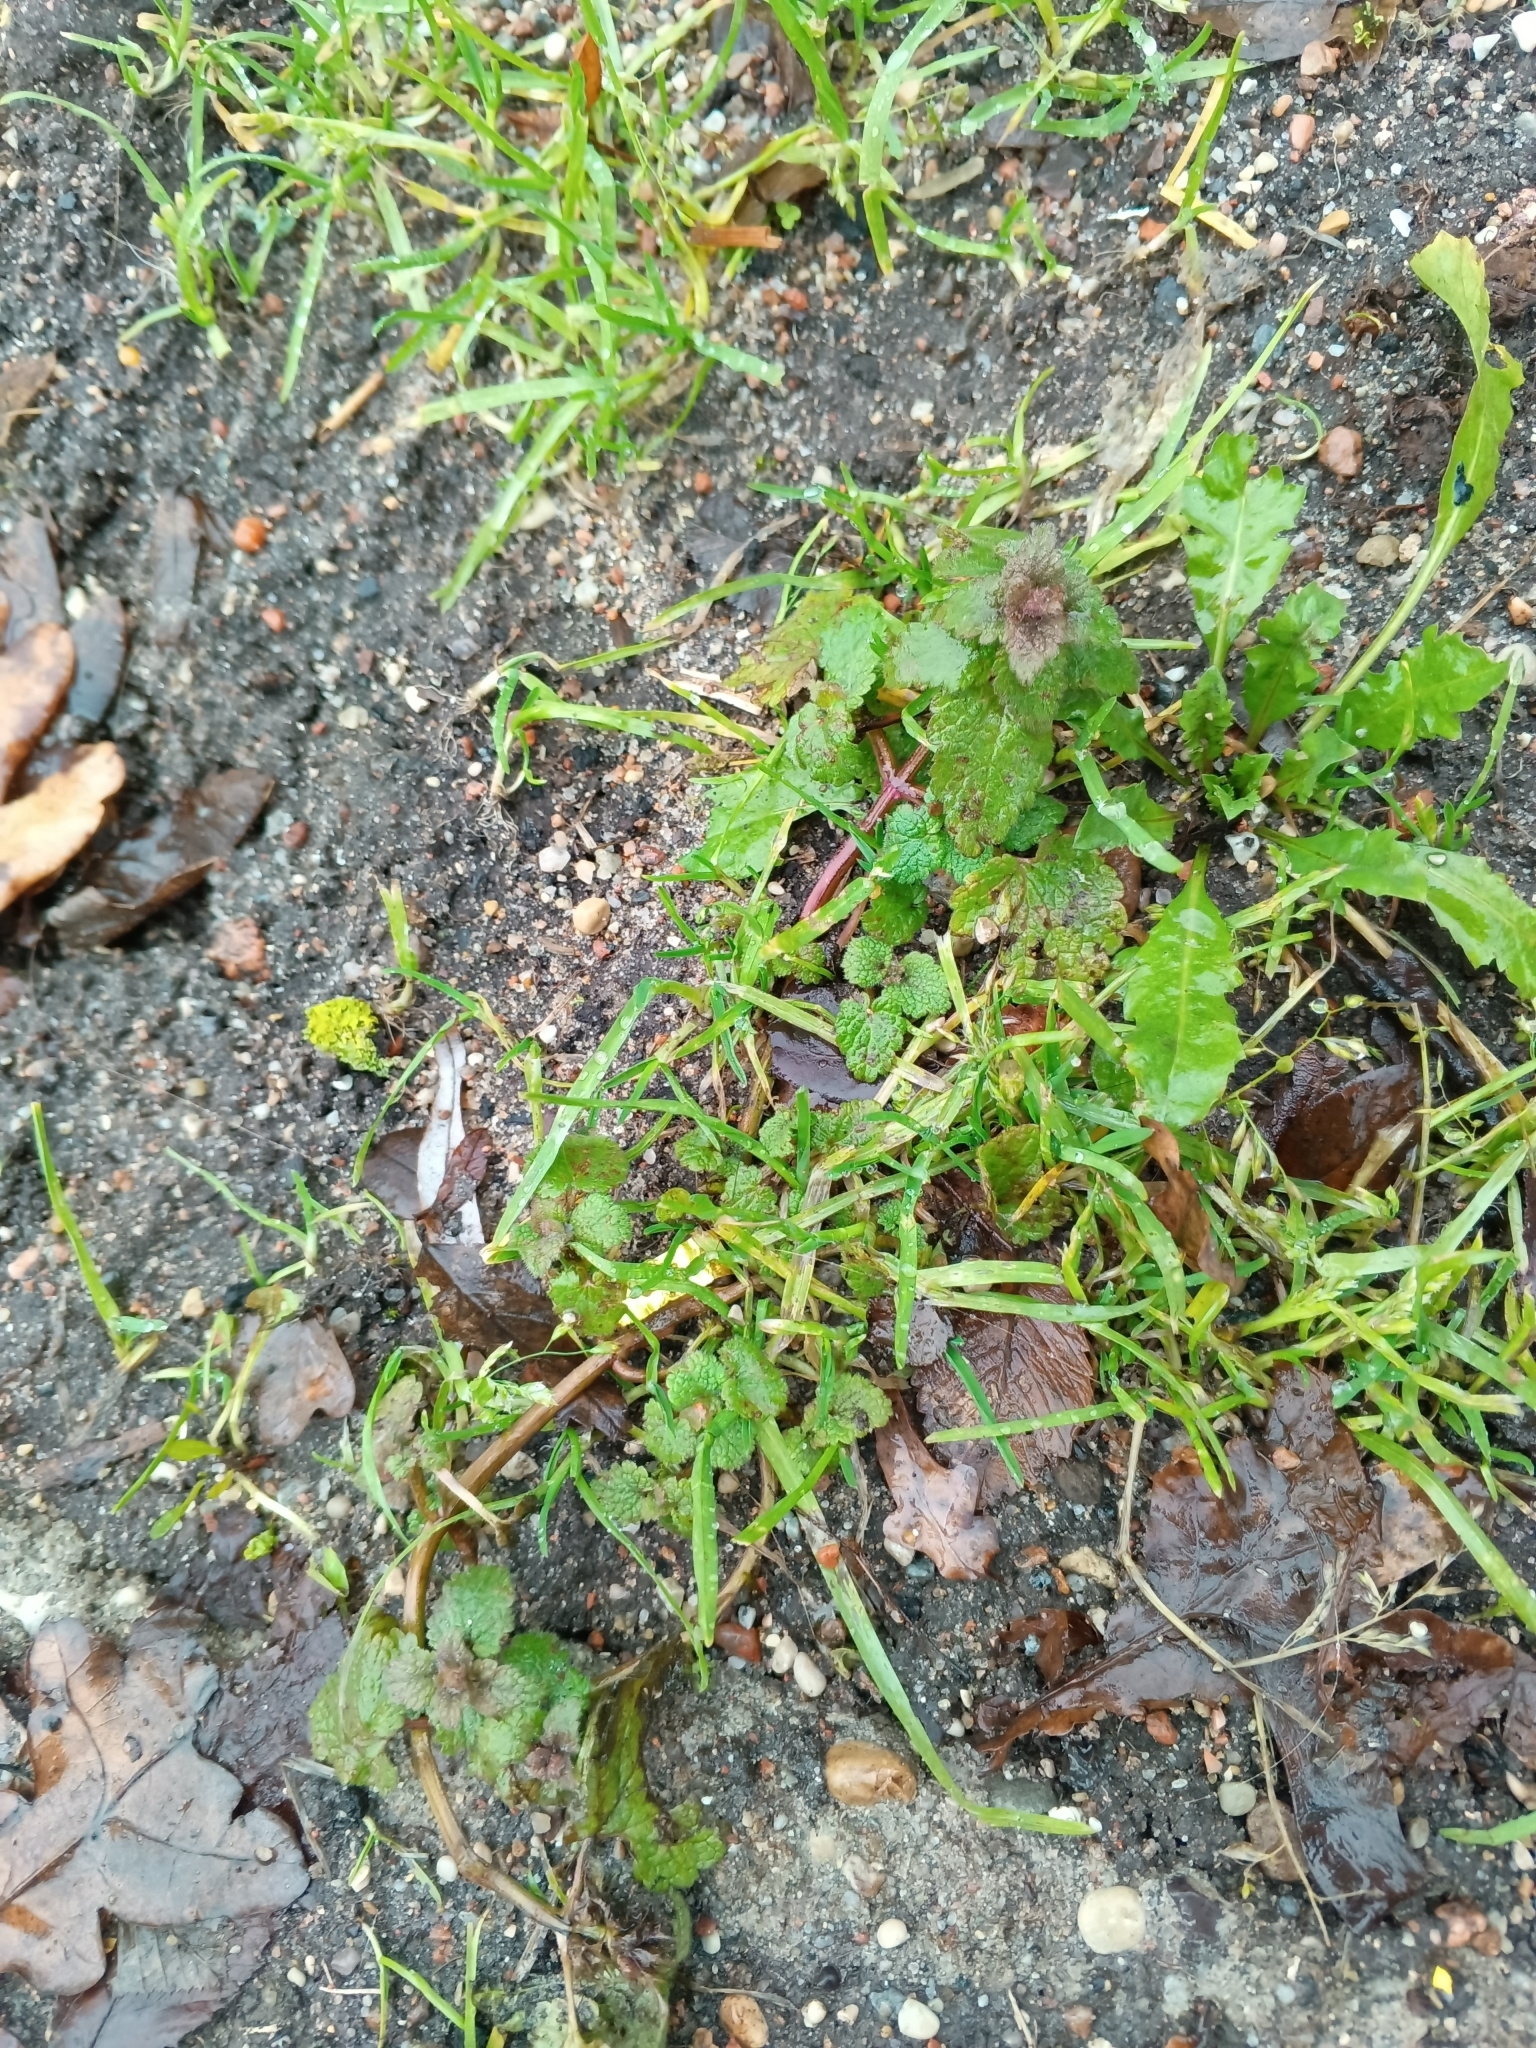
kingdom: Plantae
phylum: Tracheophyta
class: Magnoliopsida
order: Lamiales
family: Lamiaceae
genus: Lamium
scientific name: Lamium purpureum
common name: Red dead-nettle
